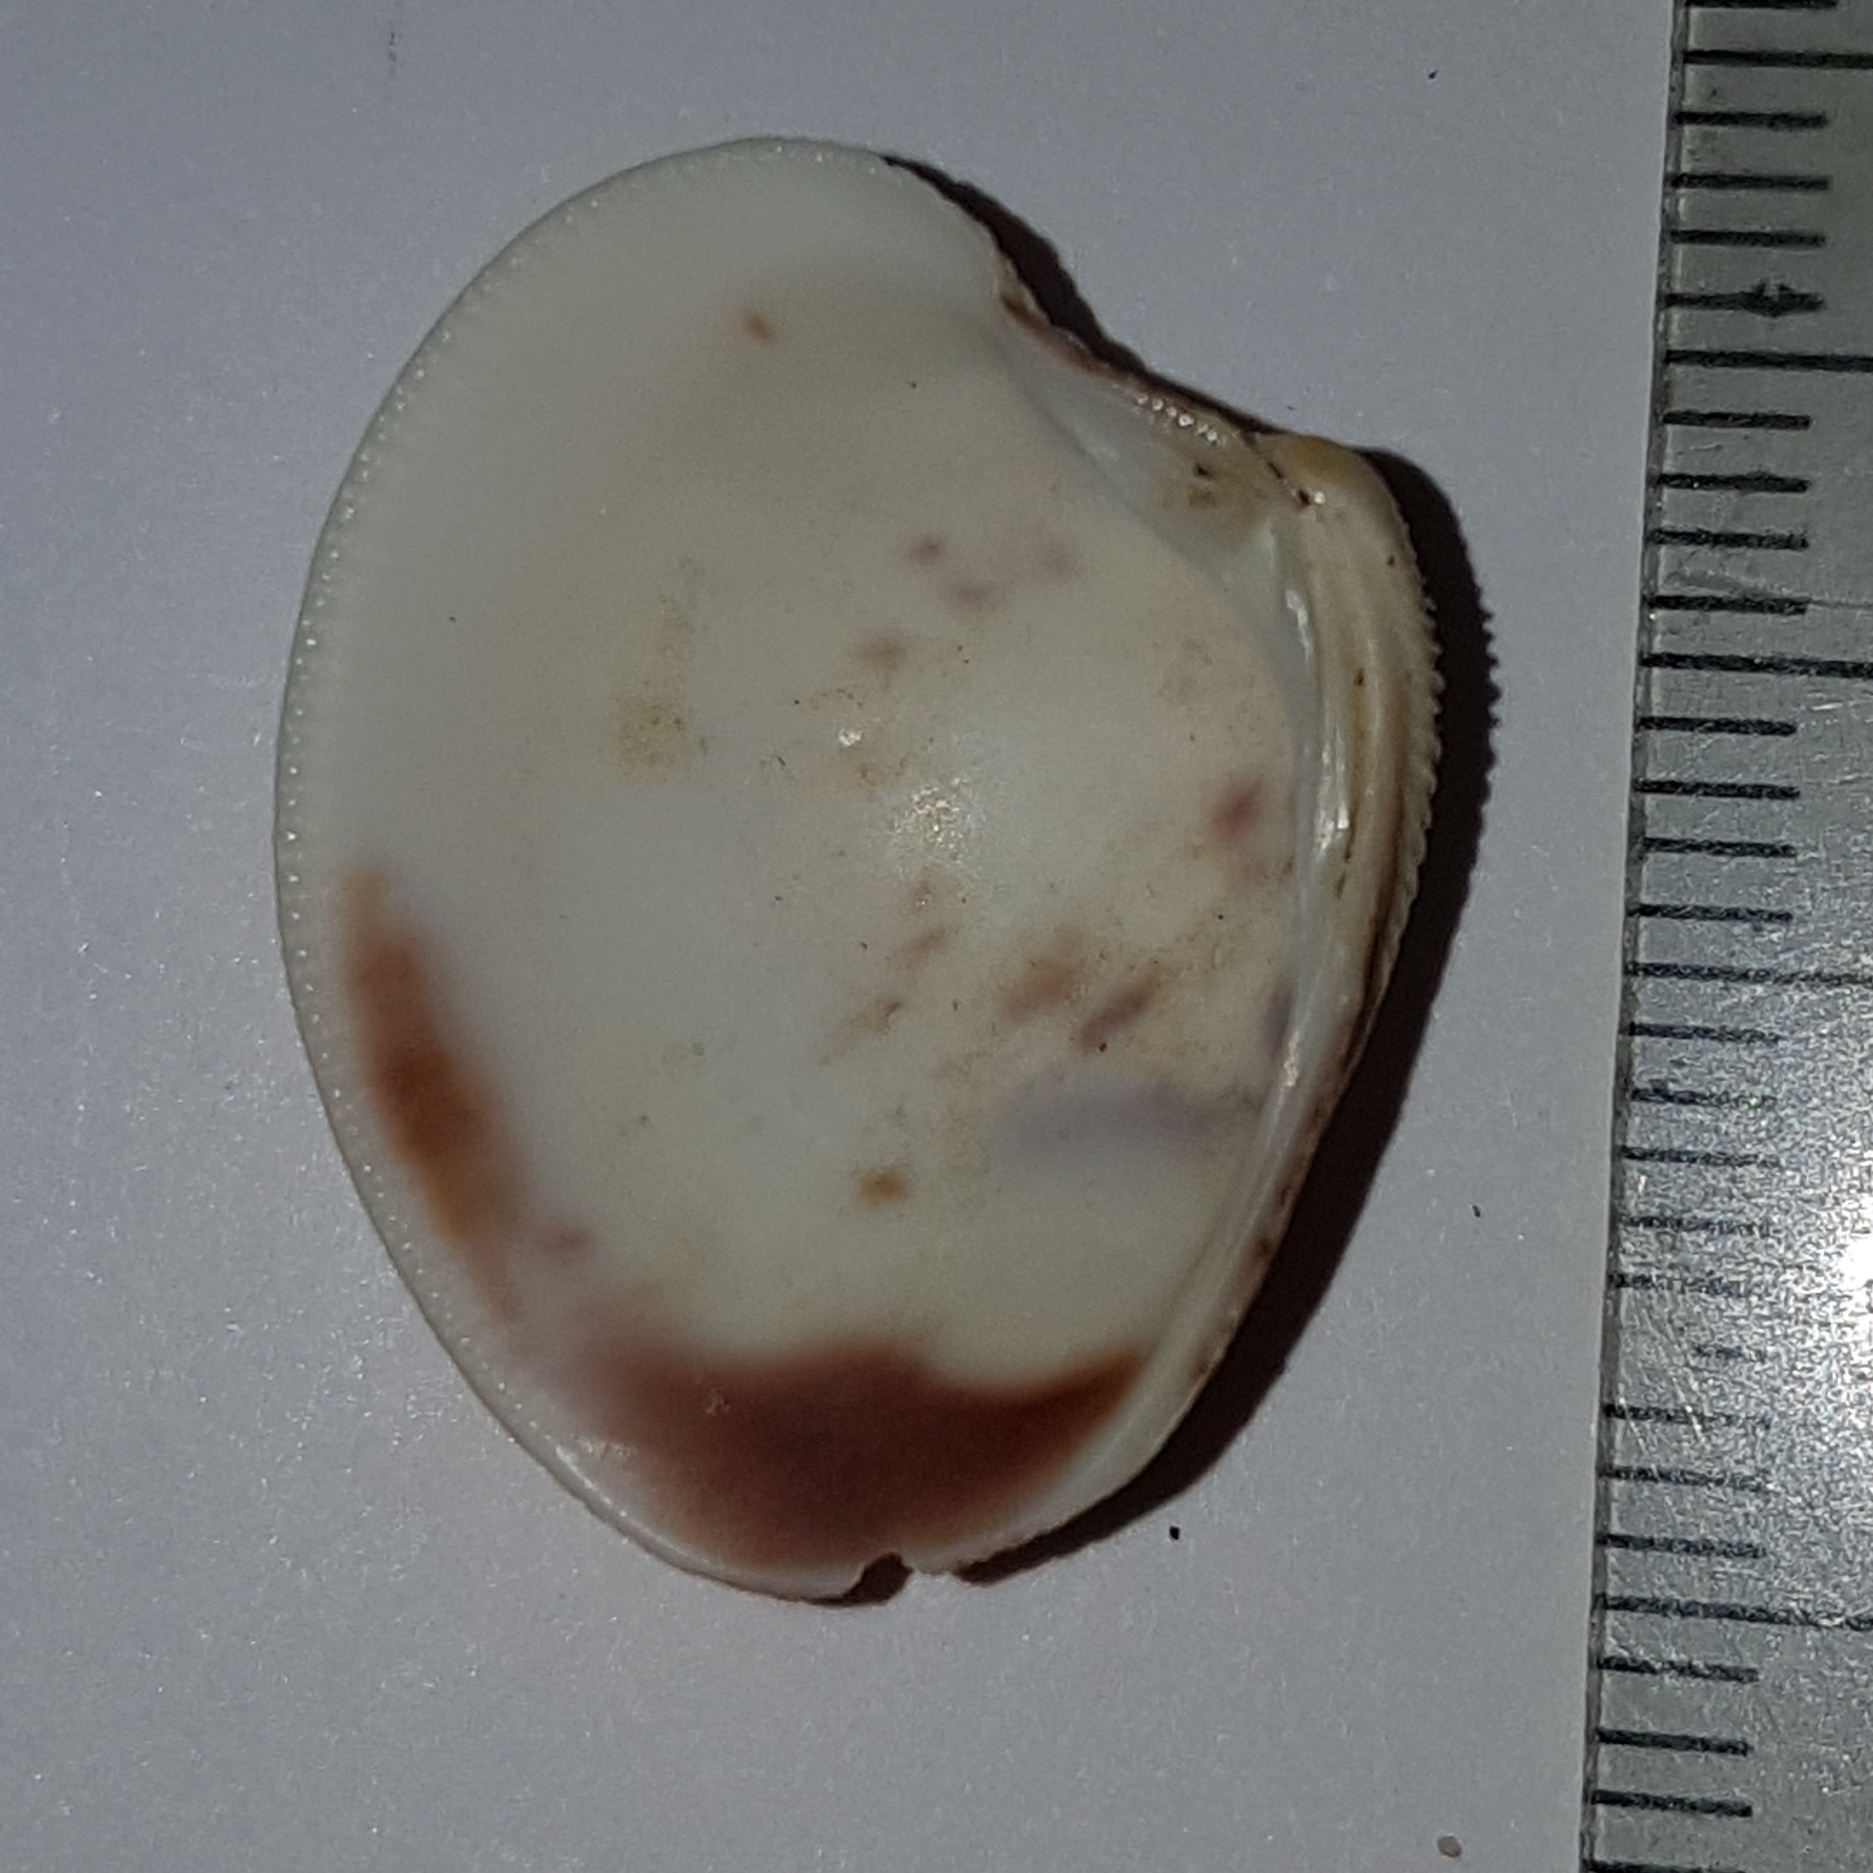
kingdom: Animalia
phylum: Mollusca
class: Bivalvia
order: Venerida
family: Veneridae
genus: Chamelea
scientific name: Chamelea gallina
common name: Chicken venus
